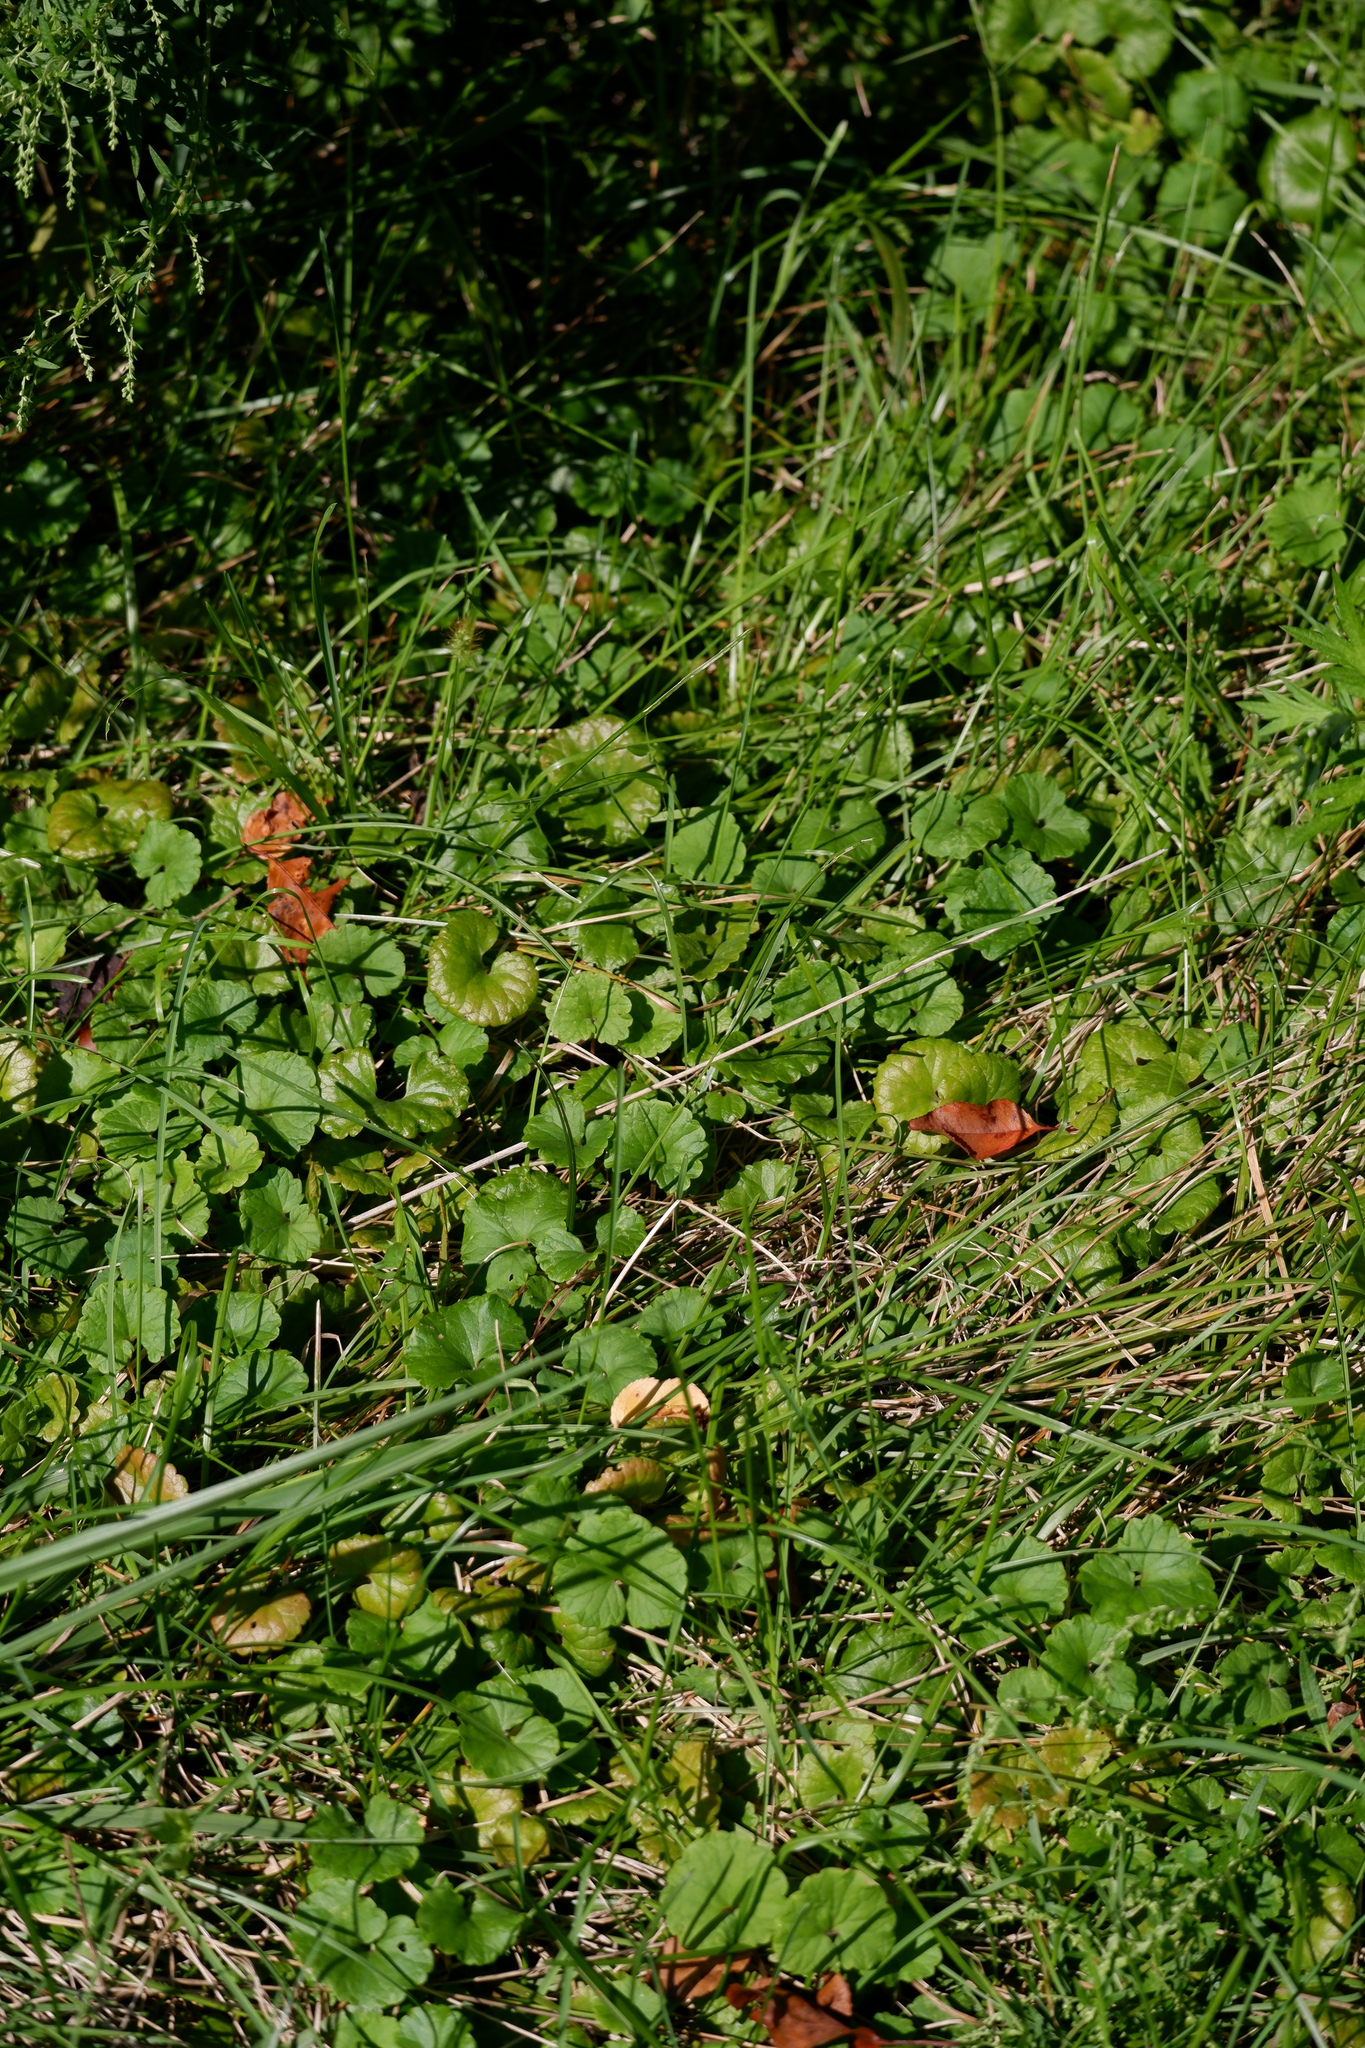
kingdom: Plantae
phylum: Tracheophyta
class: Magnoliopsida
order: Lamiales
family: Lamiaceae
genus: Glechoma
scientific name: Glechoma hederacea
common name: Ground ivy
